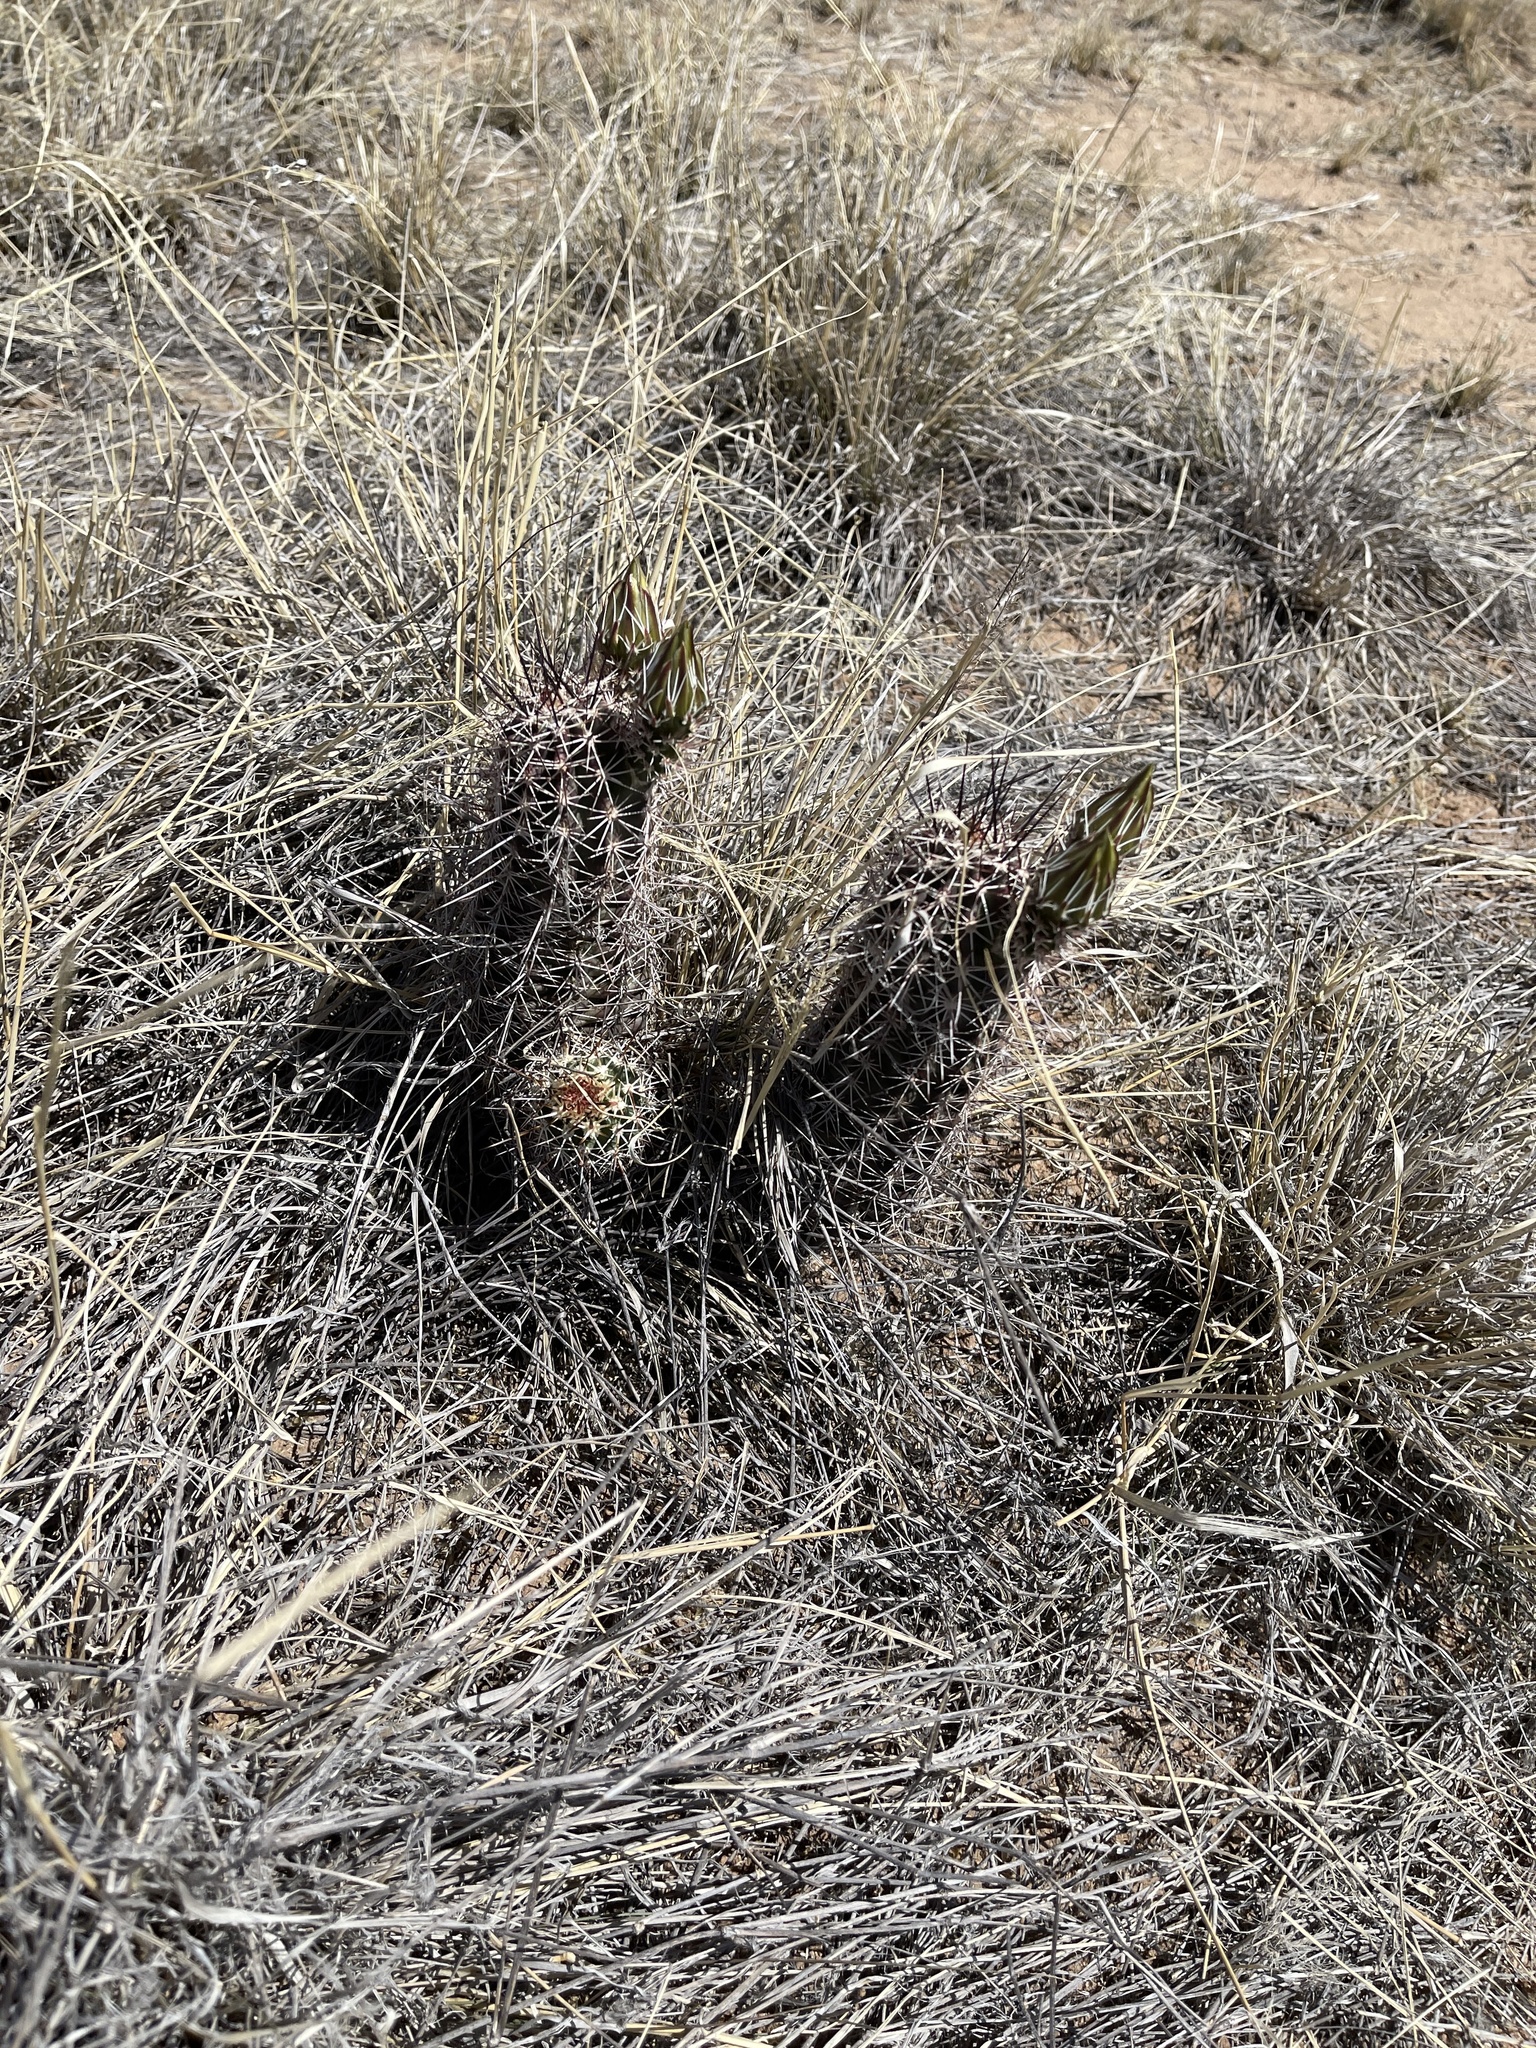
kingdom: Plantae
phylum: Tracheophyta
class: Magnoliopsida
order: Caryophyllales
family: Cactaceae
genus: Echinocereus
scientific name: Echinocereus fasciculatus
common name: Bundle hedgehog
